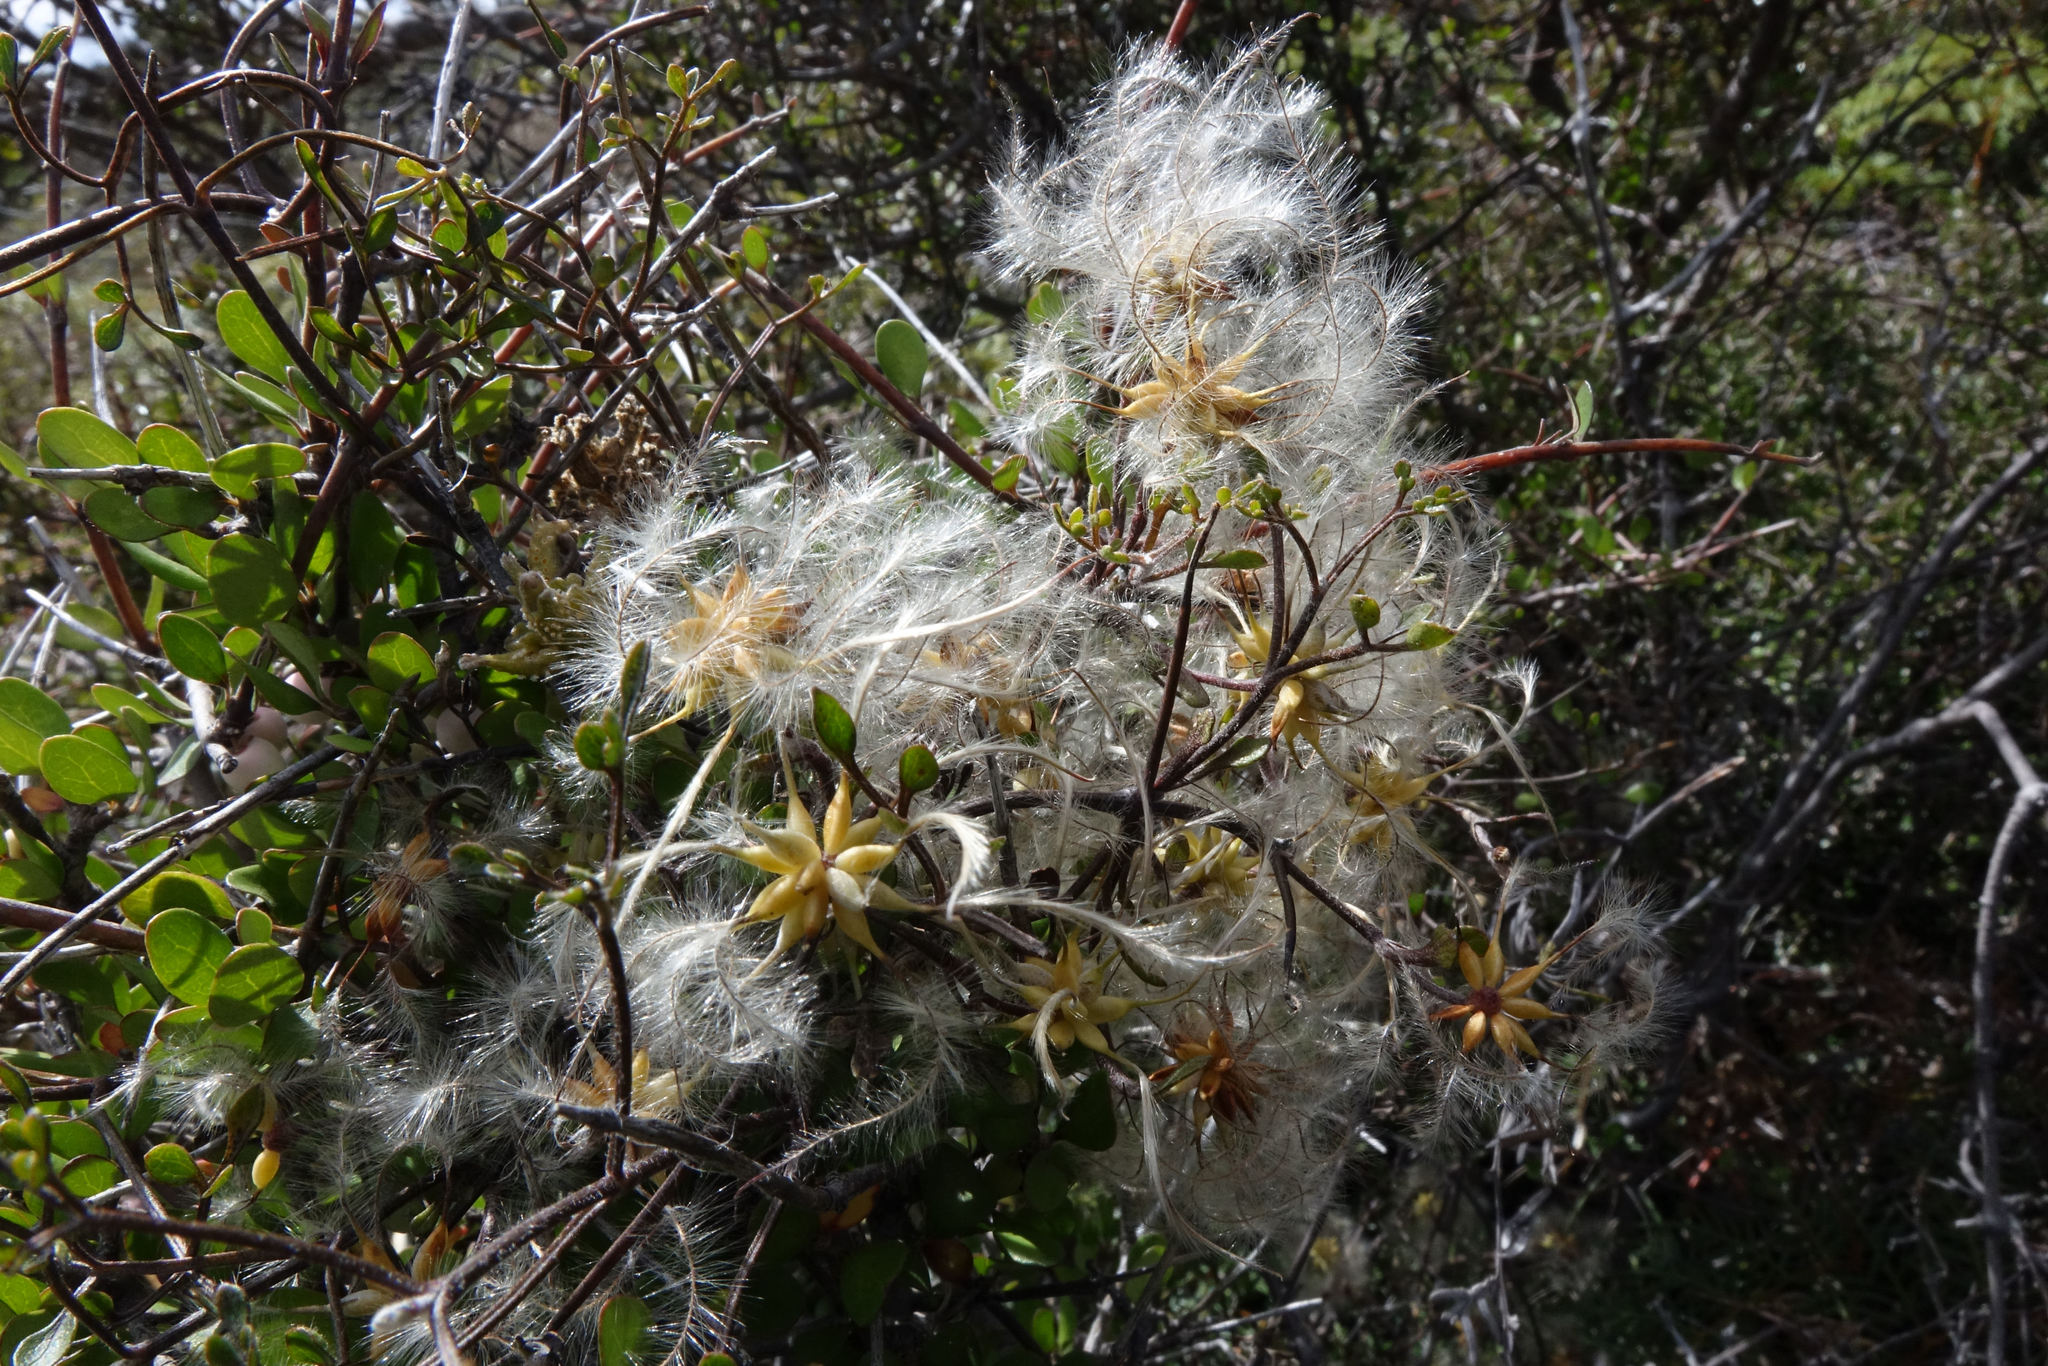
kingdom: Plantae
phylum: Tracheophyta
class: Magnoliopsida
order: Ranunculales
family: Ranunculaceae
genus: Clematis
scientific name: Clematis marata
